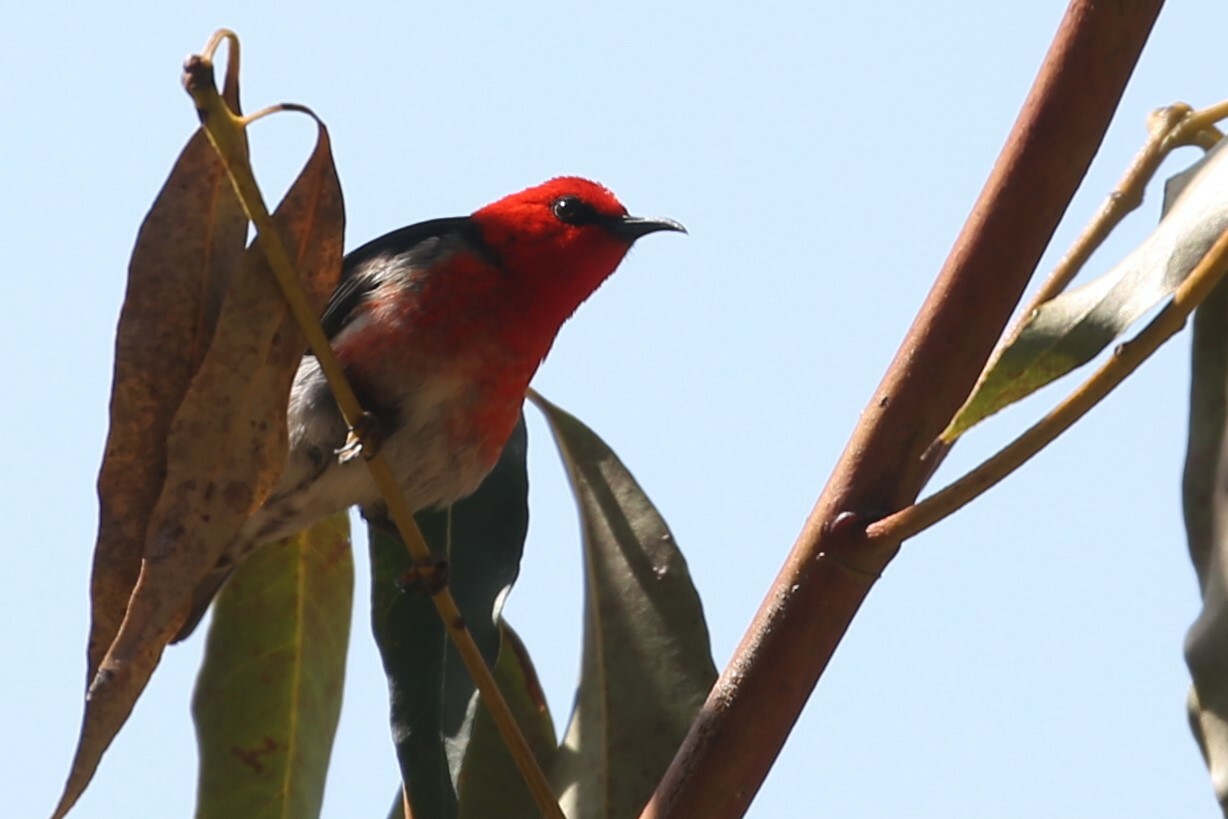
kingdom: Animalia
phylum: Chordata
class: Aves
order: Passeriformes
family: Meliphagidae
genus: Myzomela
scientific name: Myzomela sanguinolenta
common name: Scarlet myzomela
